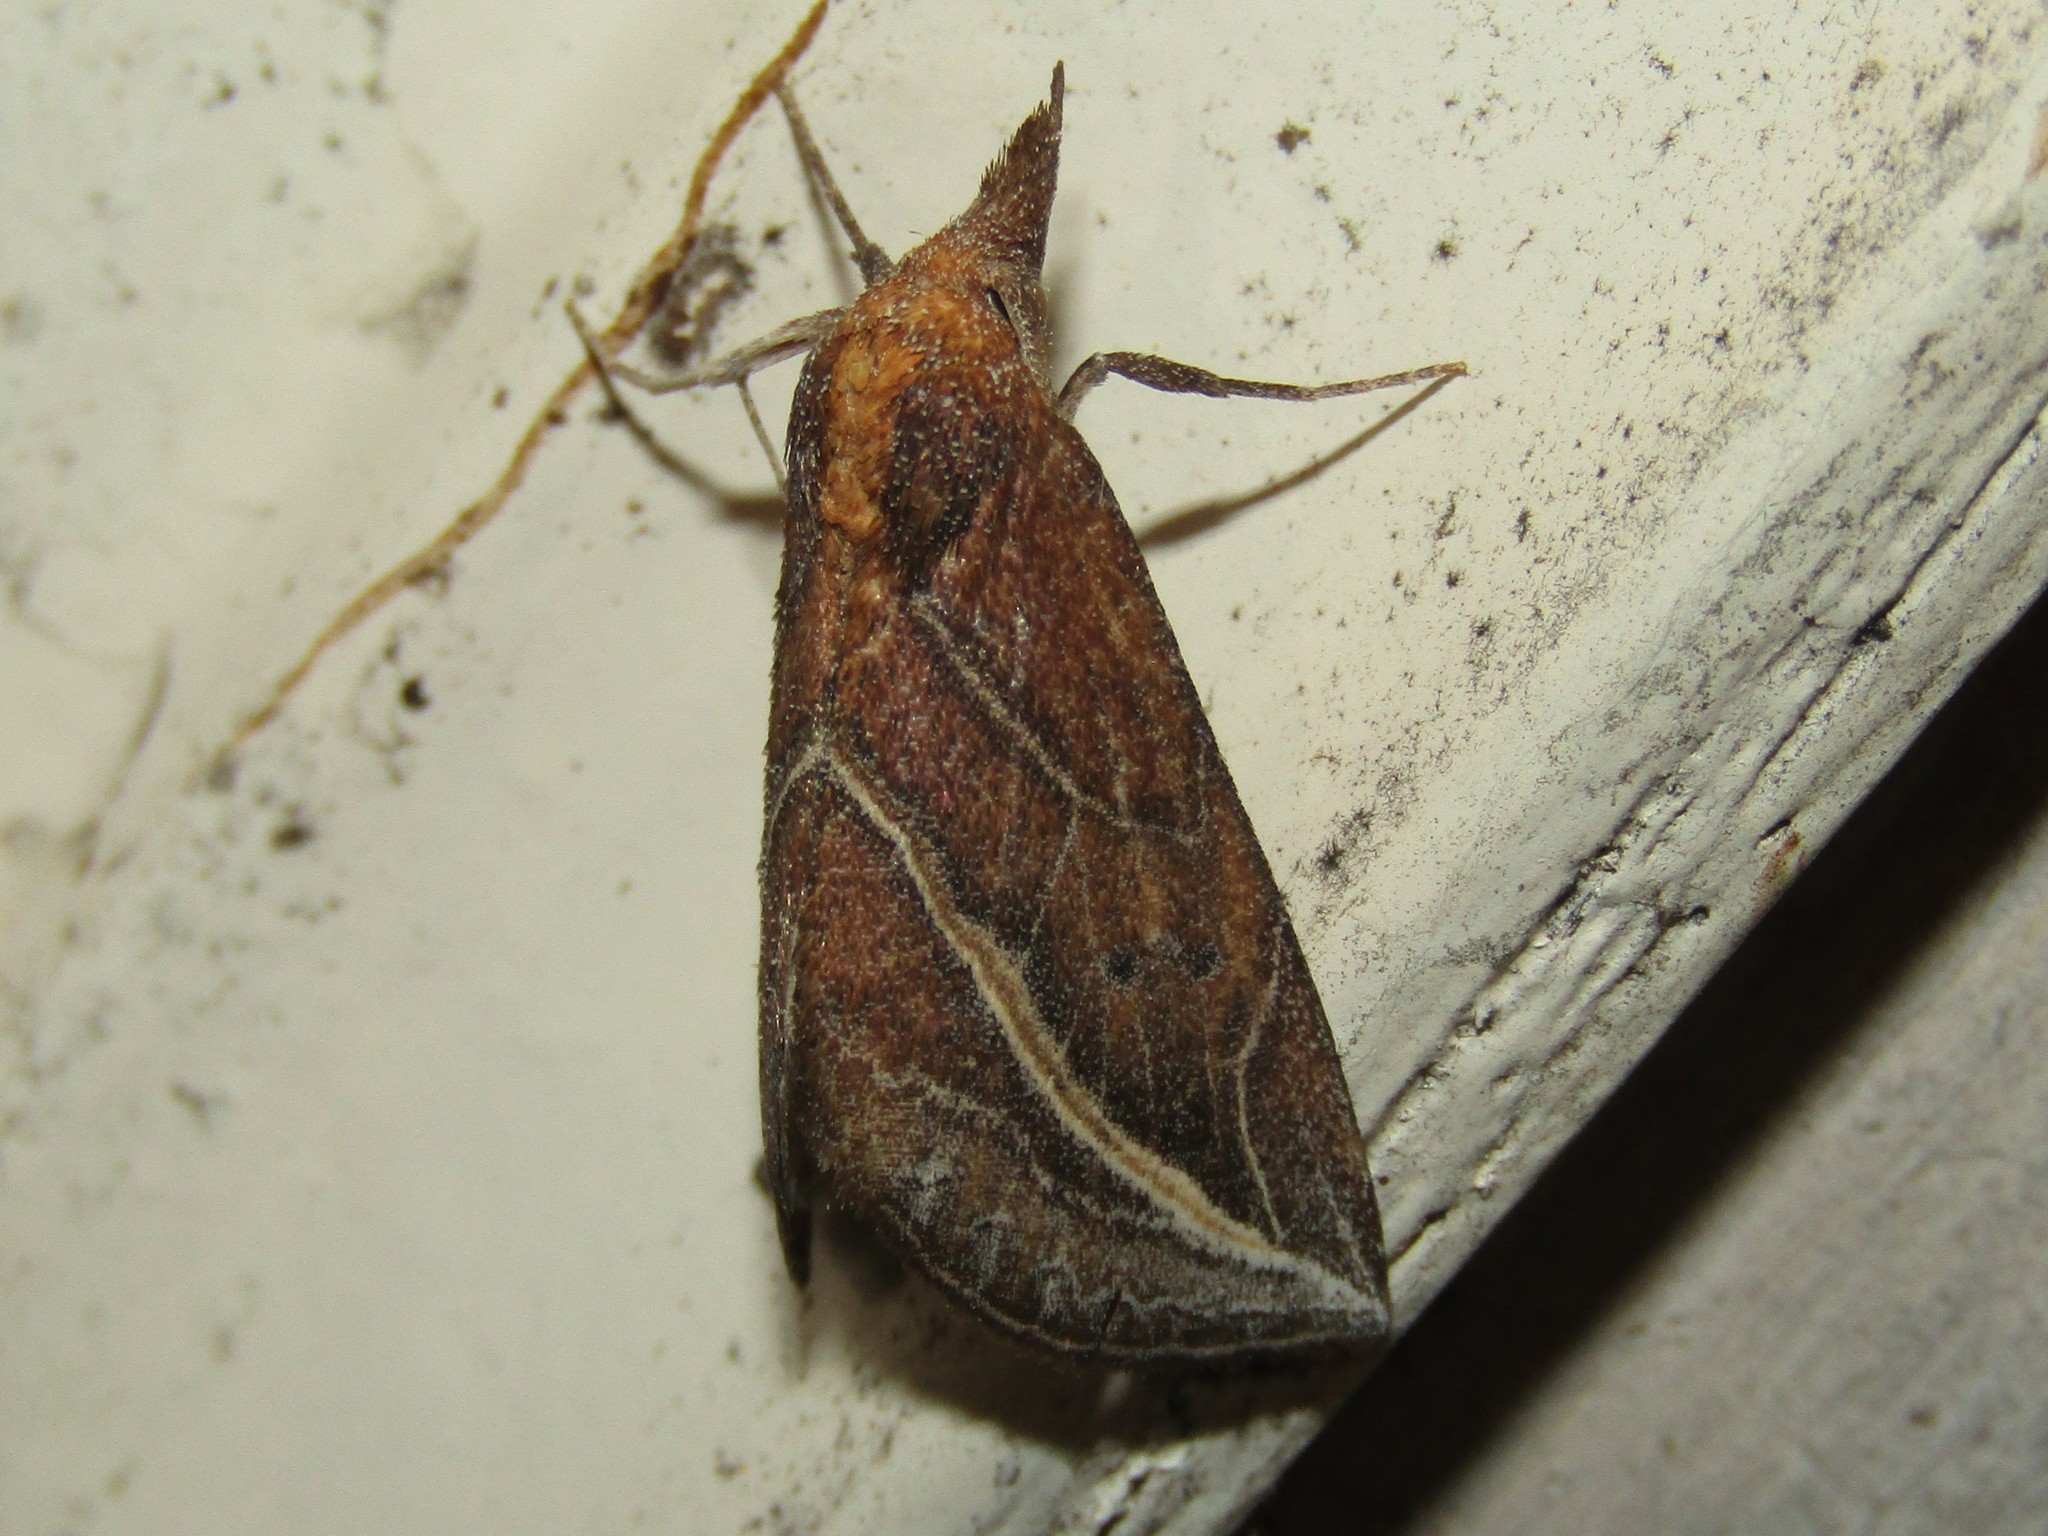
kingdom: Animalia
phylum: Arthropoda
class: Insecta
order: Lepidoptera
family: Erebidae
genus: Phyprosopus
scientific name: Phyprosopus callitrichoides
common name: Curved-lined owlet
